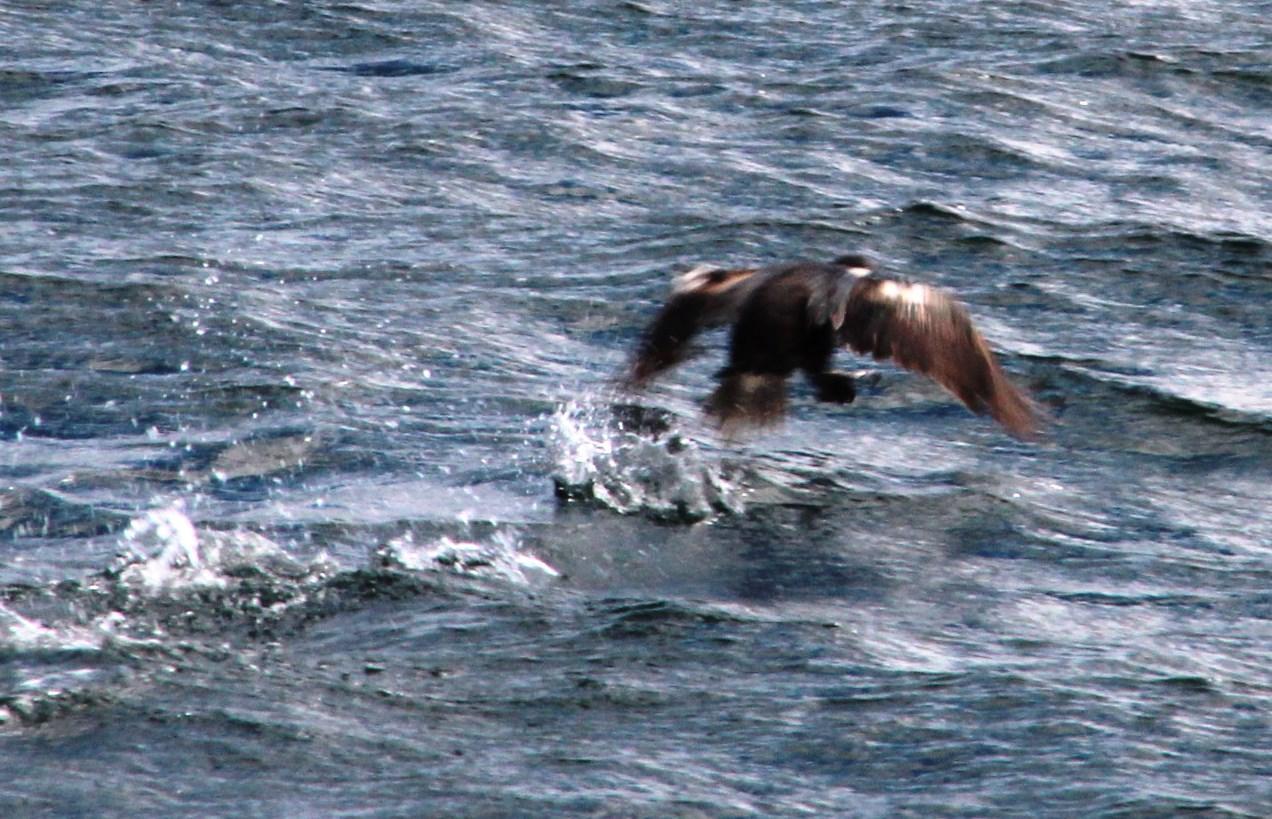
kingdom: Animalia
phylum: Chordata
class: Aves
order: Suliformes
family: Phalacrocoracidae
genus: Leucocarbo
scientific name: Leucocarbo atriceps
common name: Imperial shag
